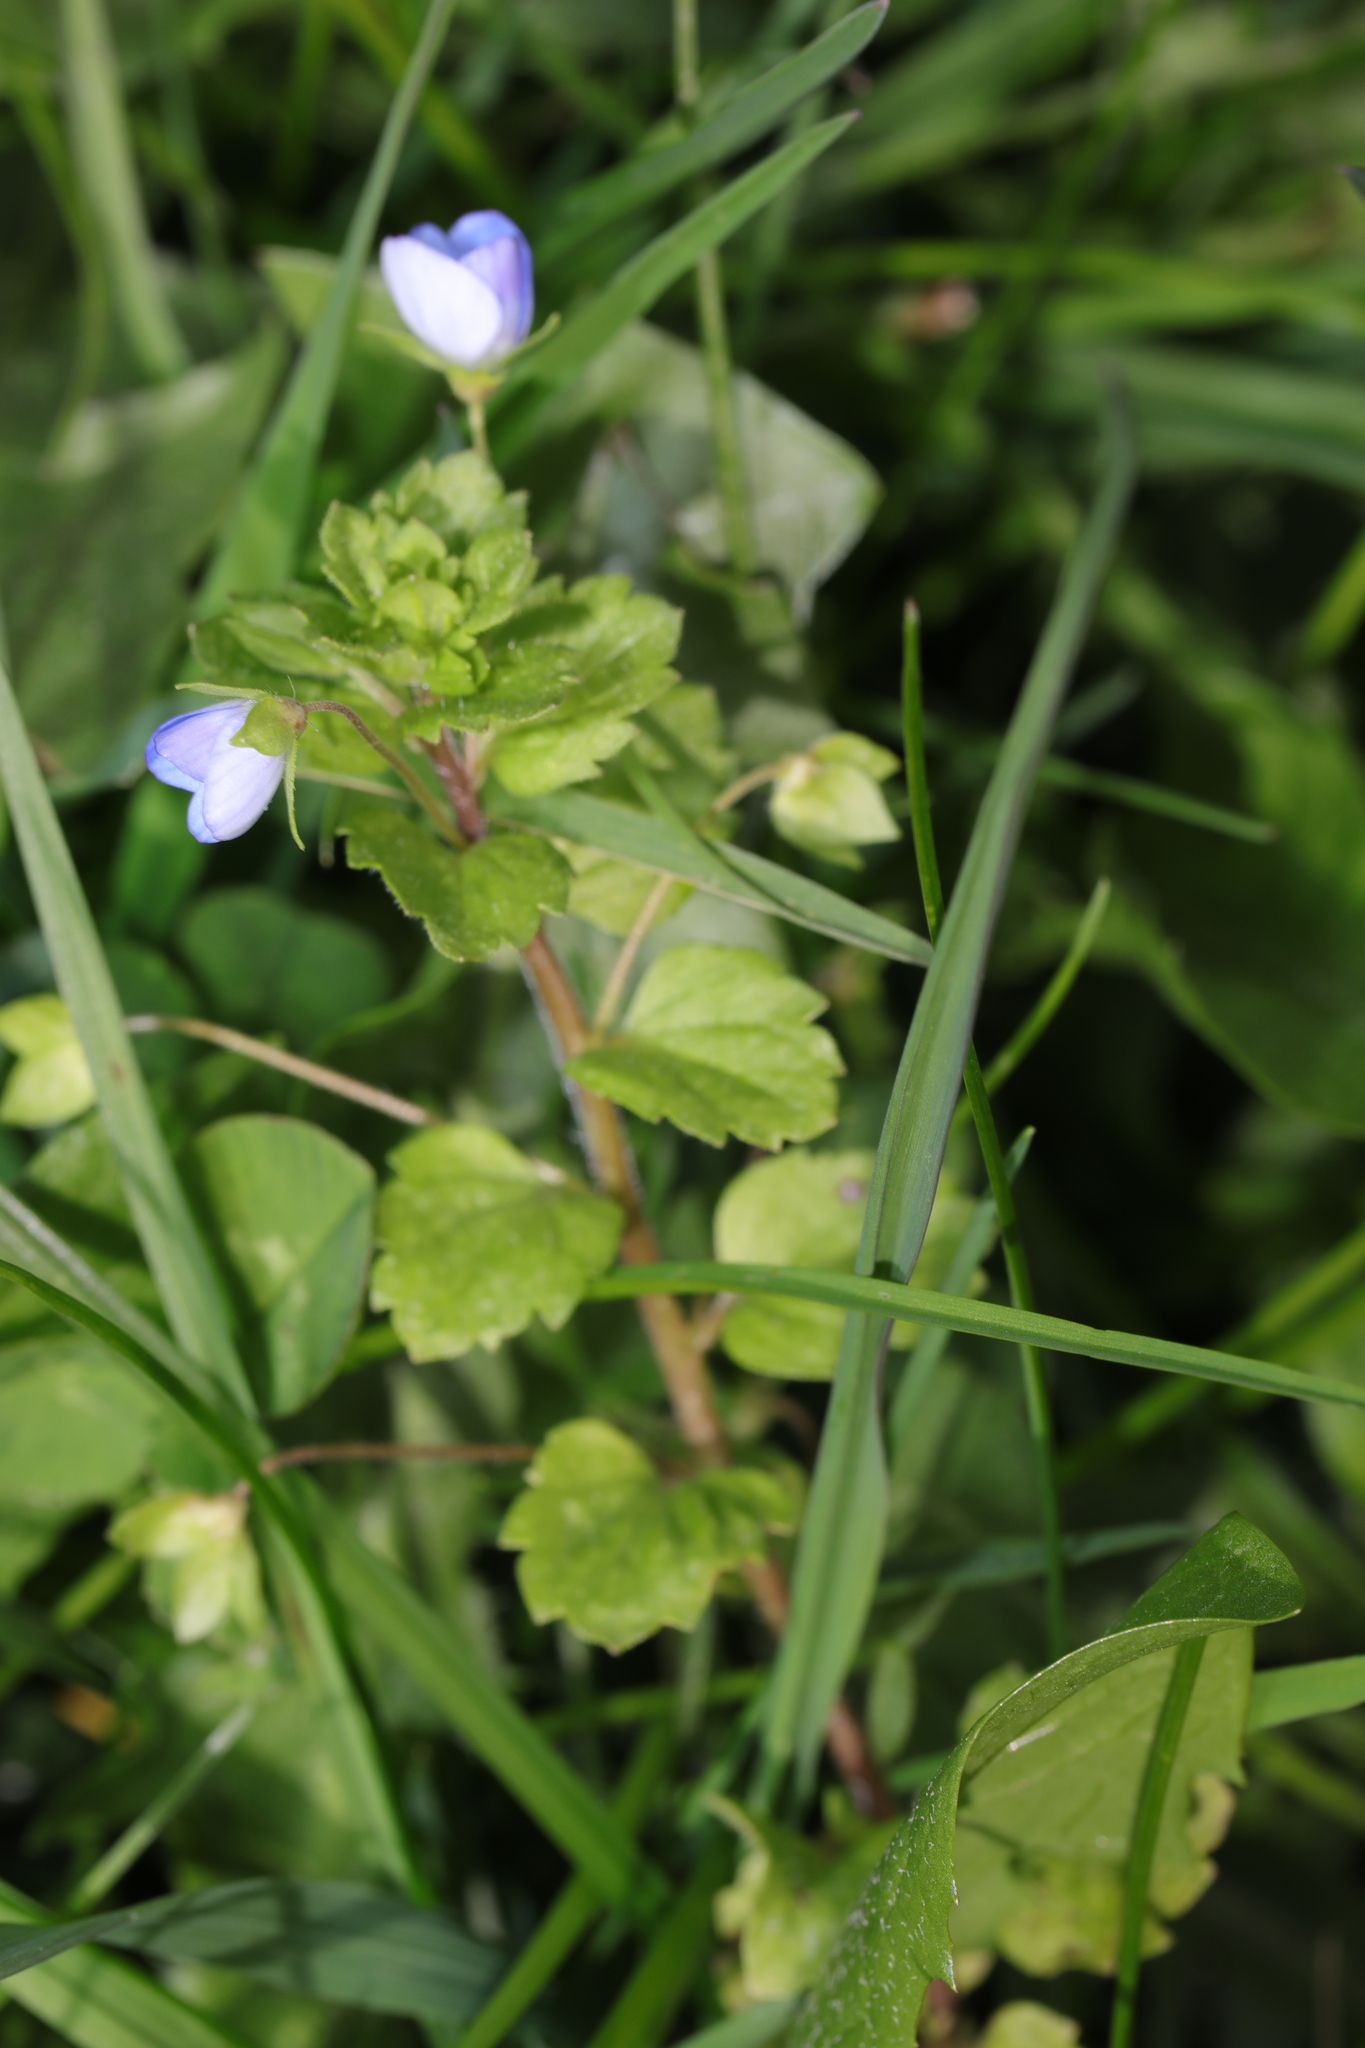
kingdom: Plantae
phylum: Tracheophyta
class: Magnoliopsida
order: Lamiales
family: Plantaginaceae
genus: Veronica
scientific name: Veronica persica
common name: Common field-speedwell
